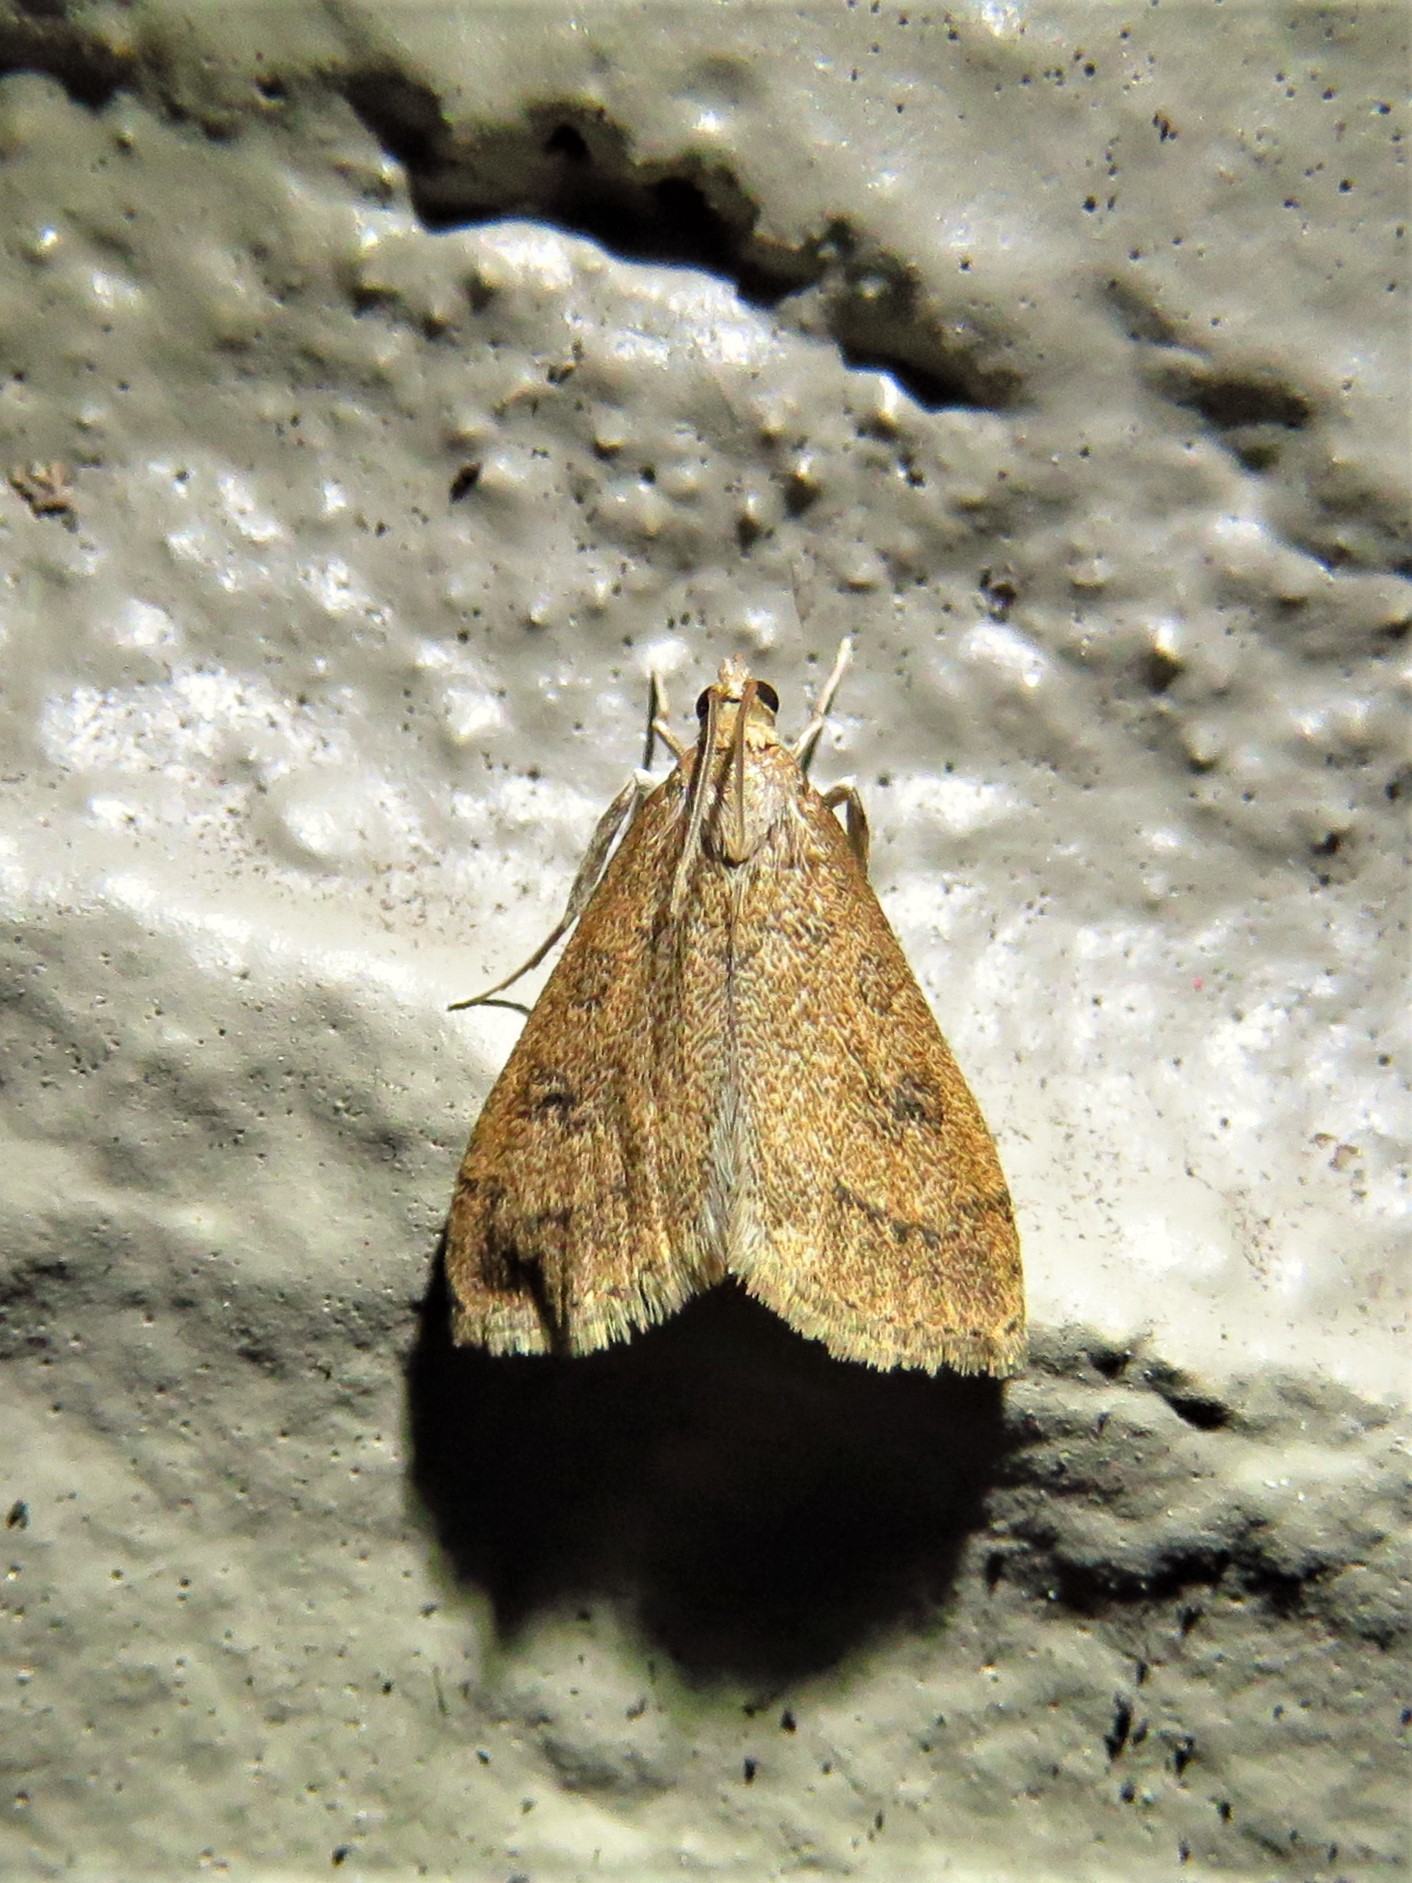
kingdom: Animalia
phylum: Arthropoda
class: Insecta
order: Lepidoptera
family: Crambidae
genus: Udea
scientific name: Udea rubigalis
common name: Celery leaftier moth
